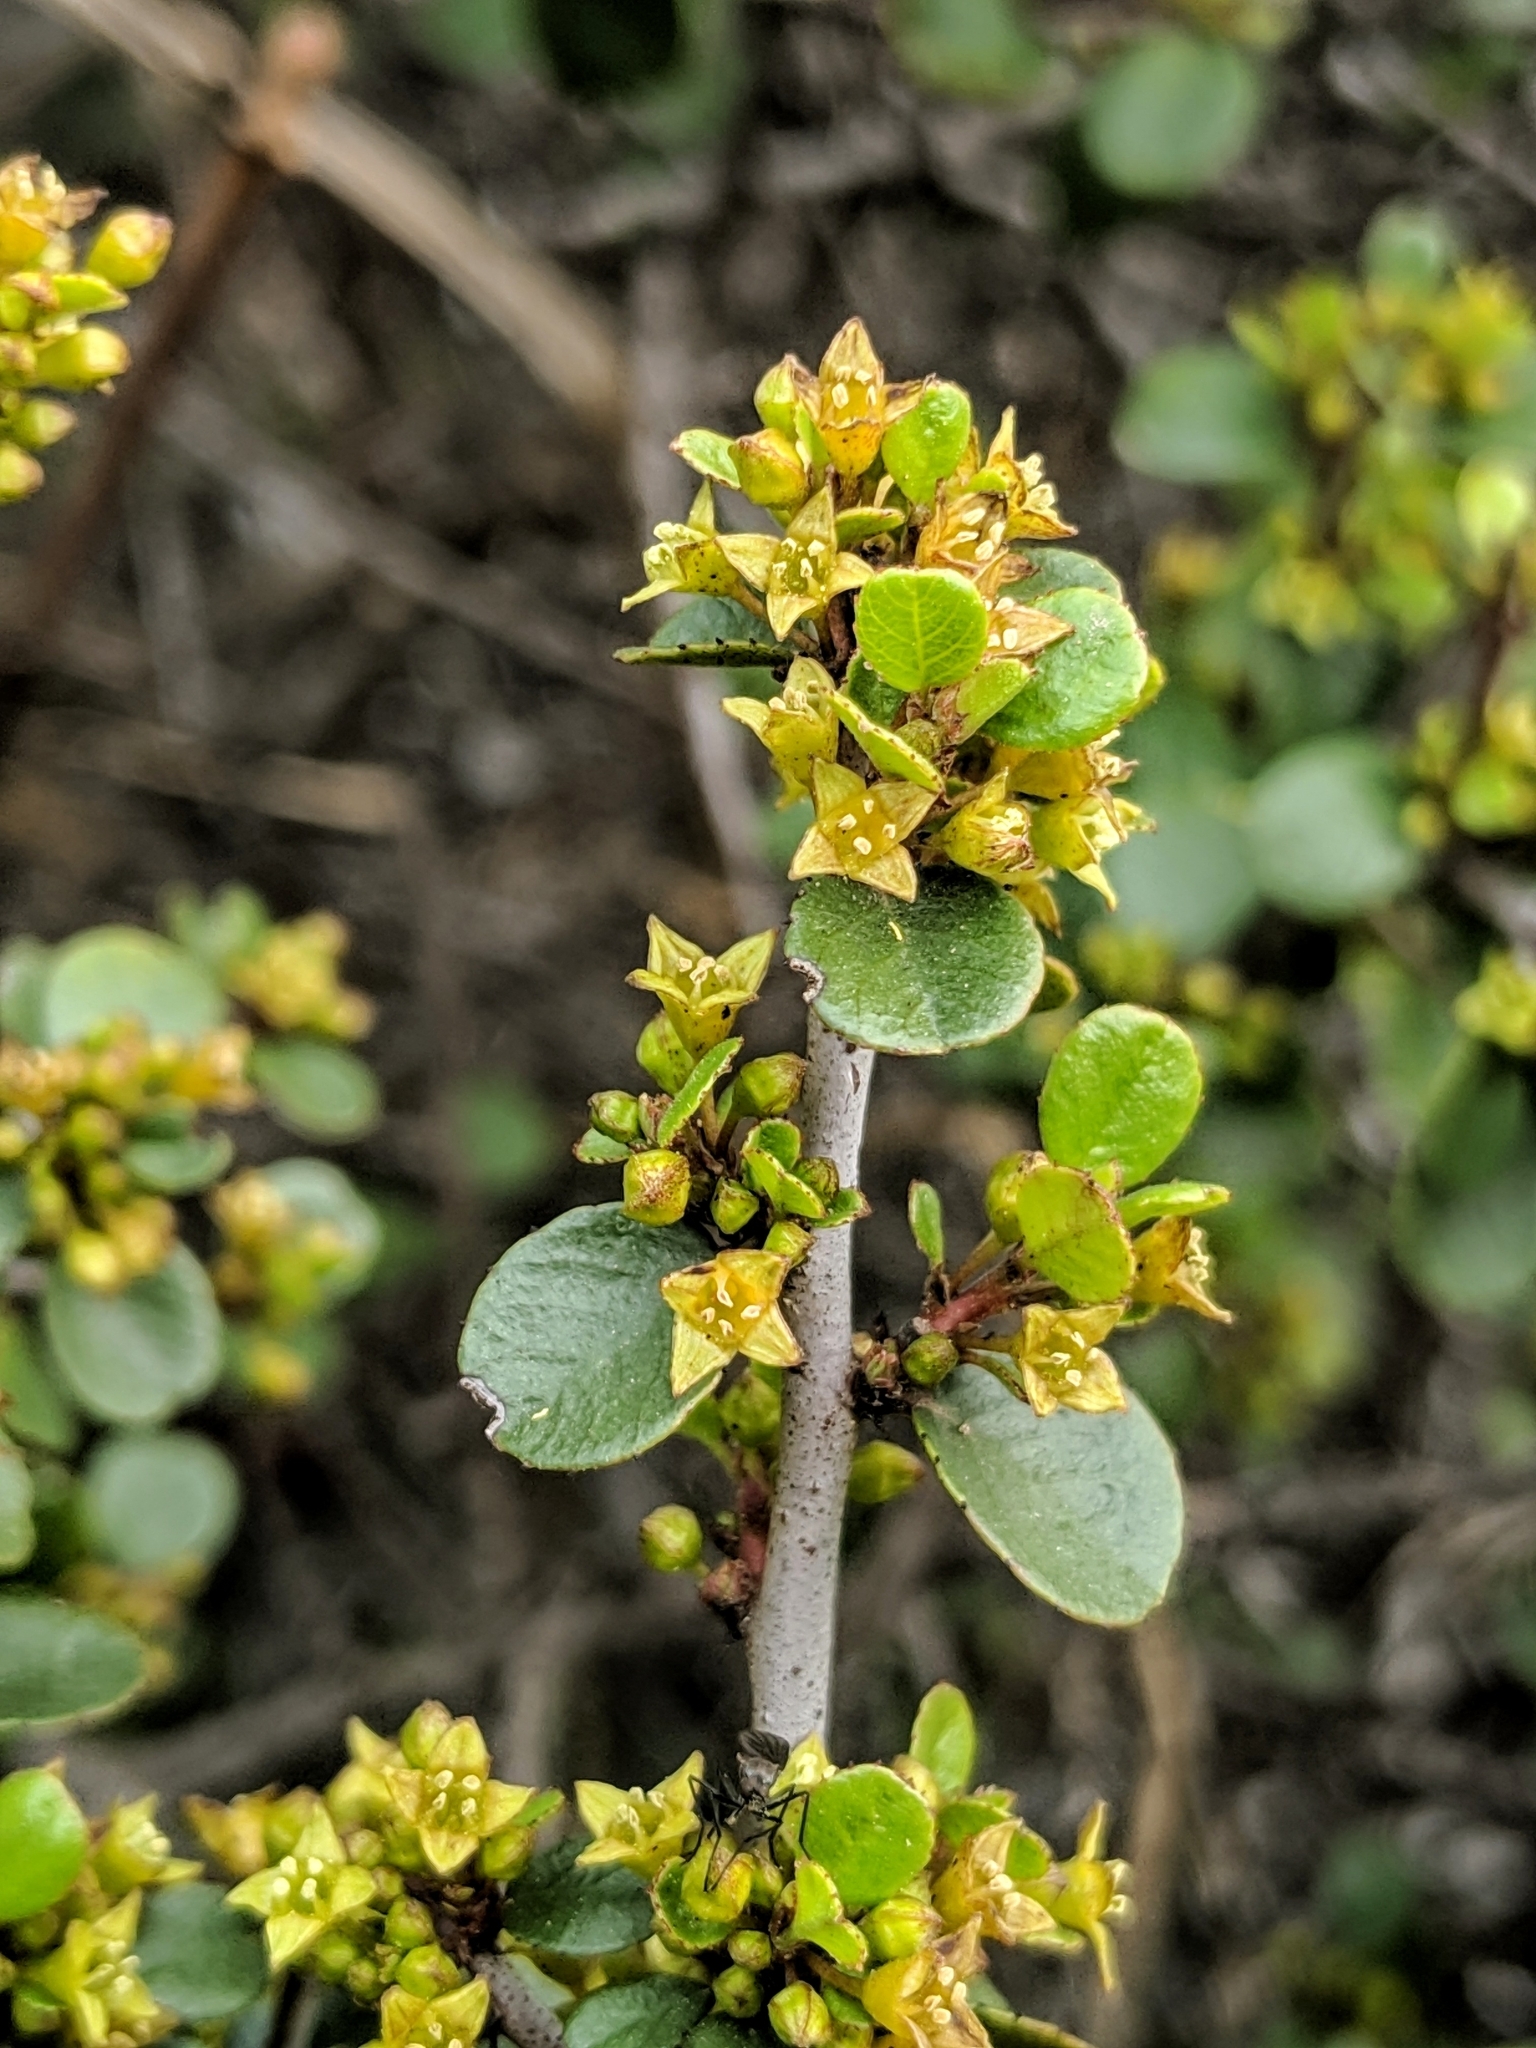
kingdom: Plantae
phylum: Tracheophyta
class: Magnoliopsida
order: Rosales
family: Rhamnaceae
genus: Endotropis
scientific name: Endotropis crocea
